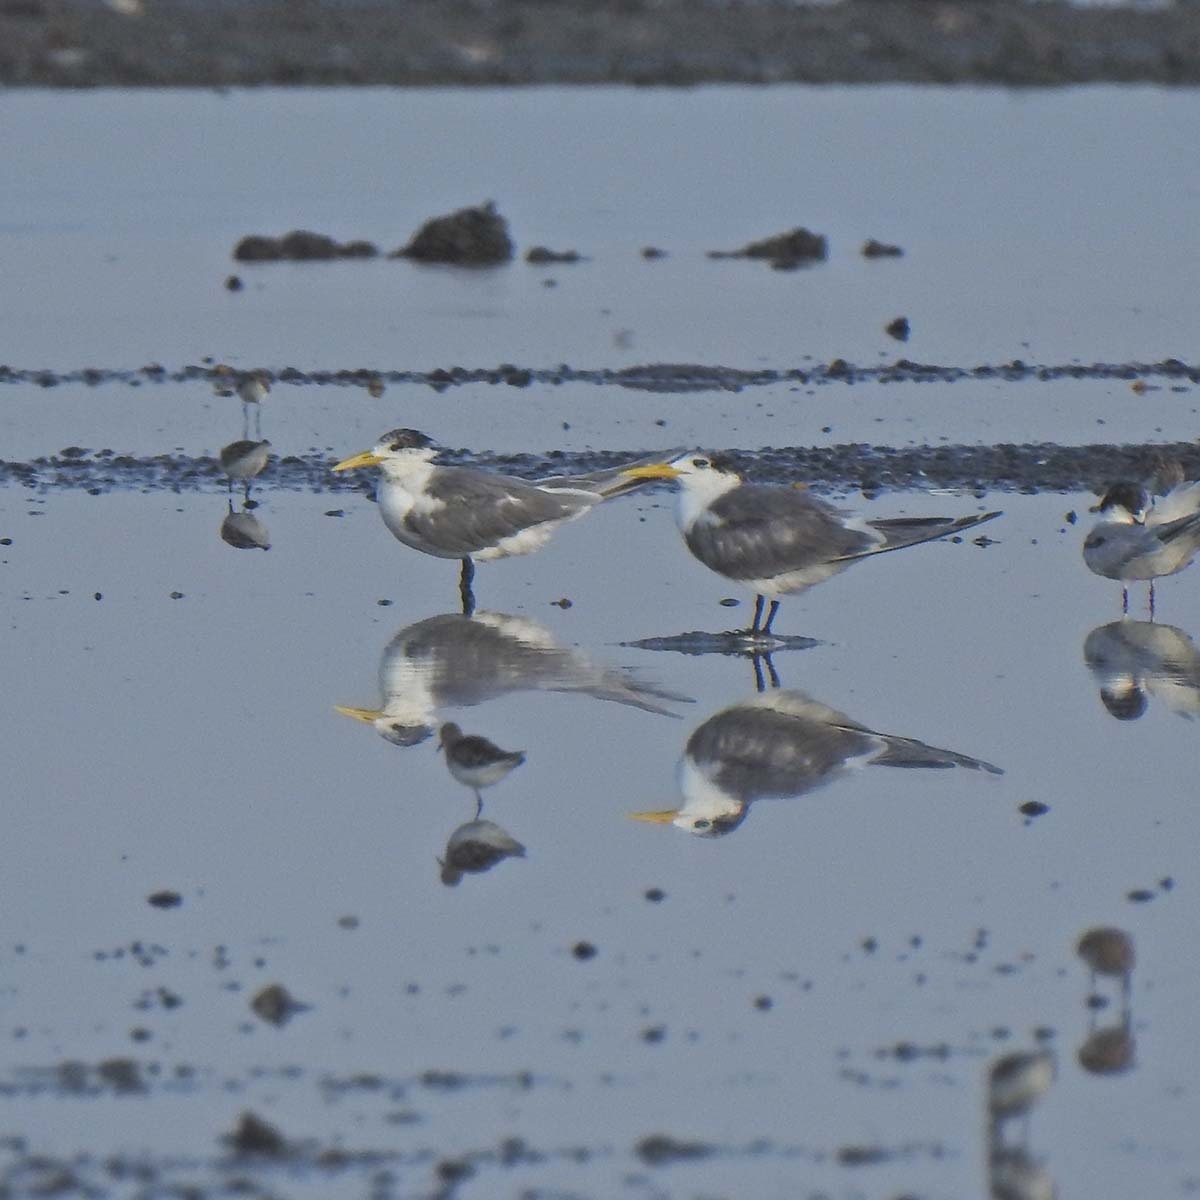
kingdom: Animalia
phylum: Chordata
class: Aves
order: Charadriiformes
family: Laridae
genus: Thalasseus
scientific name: Thalasseus bergii
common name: Greater crested tern
